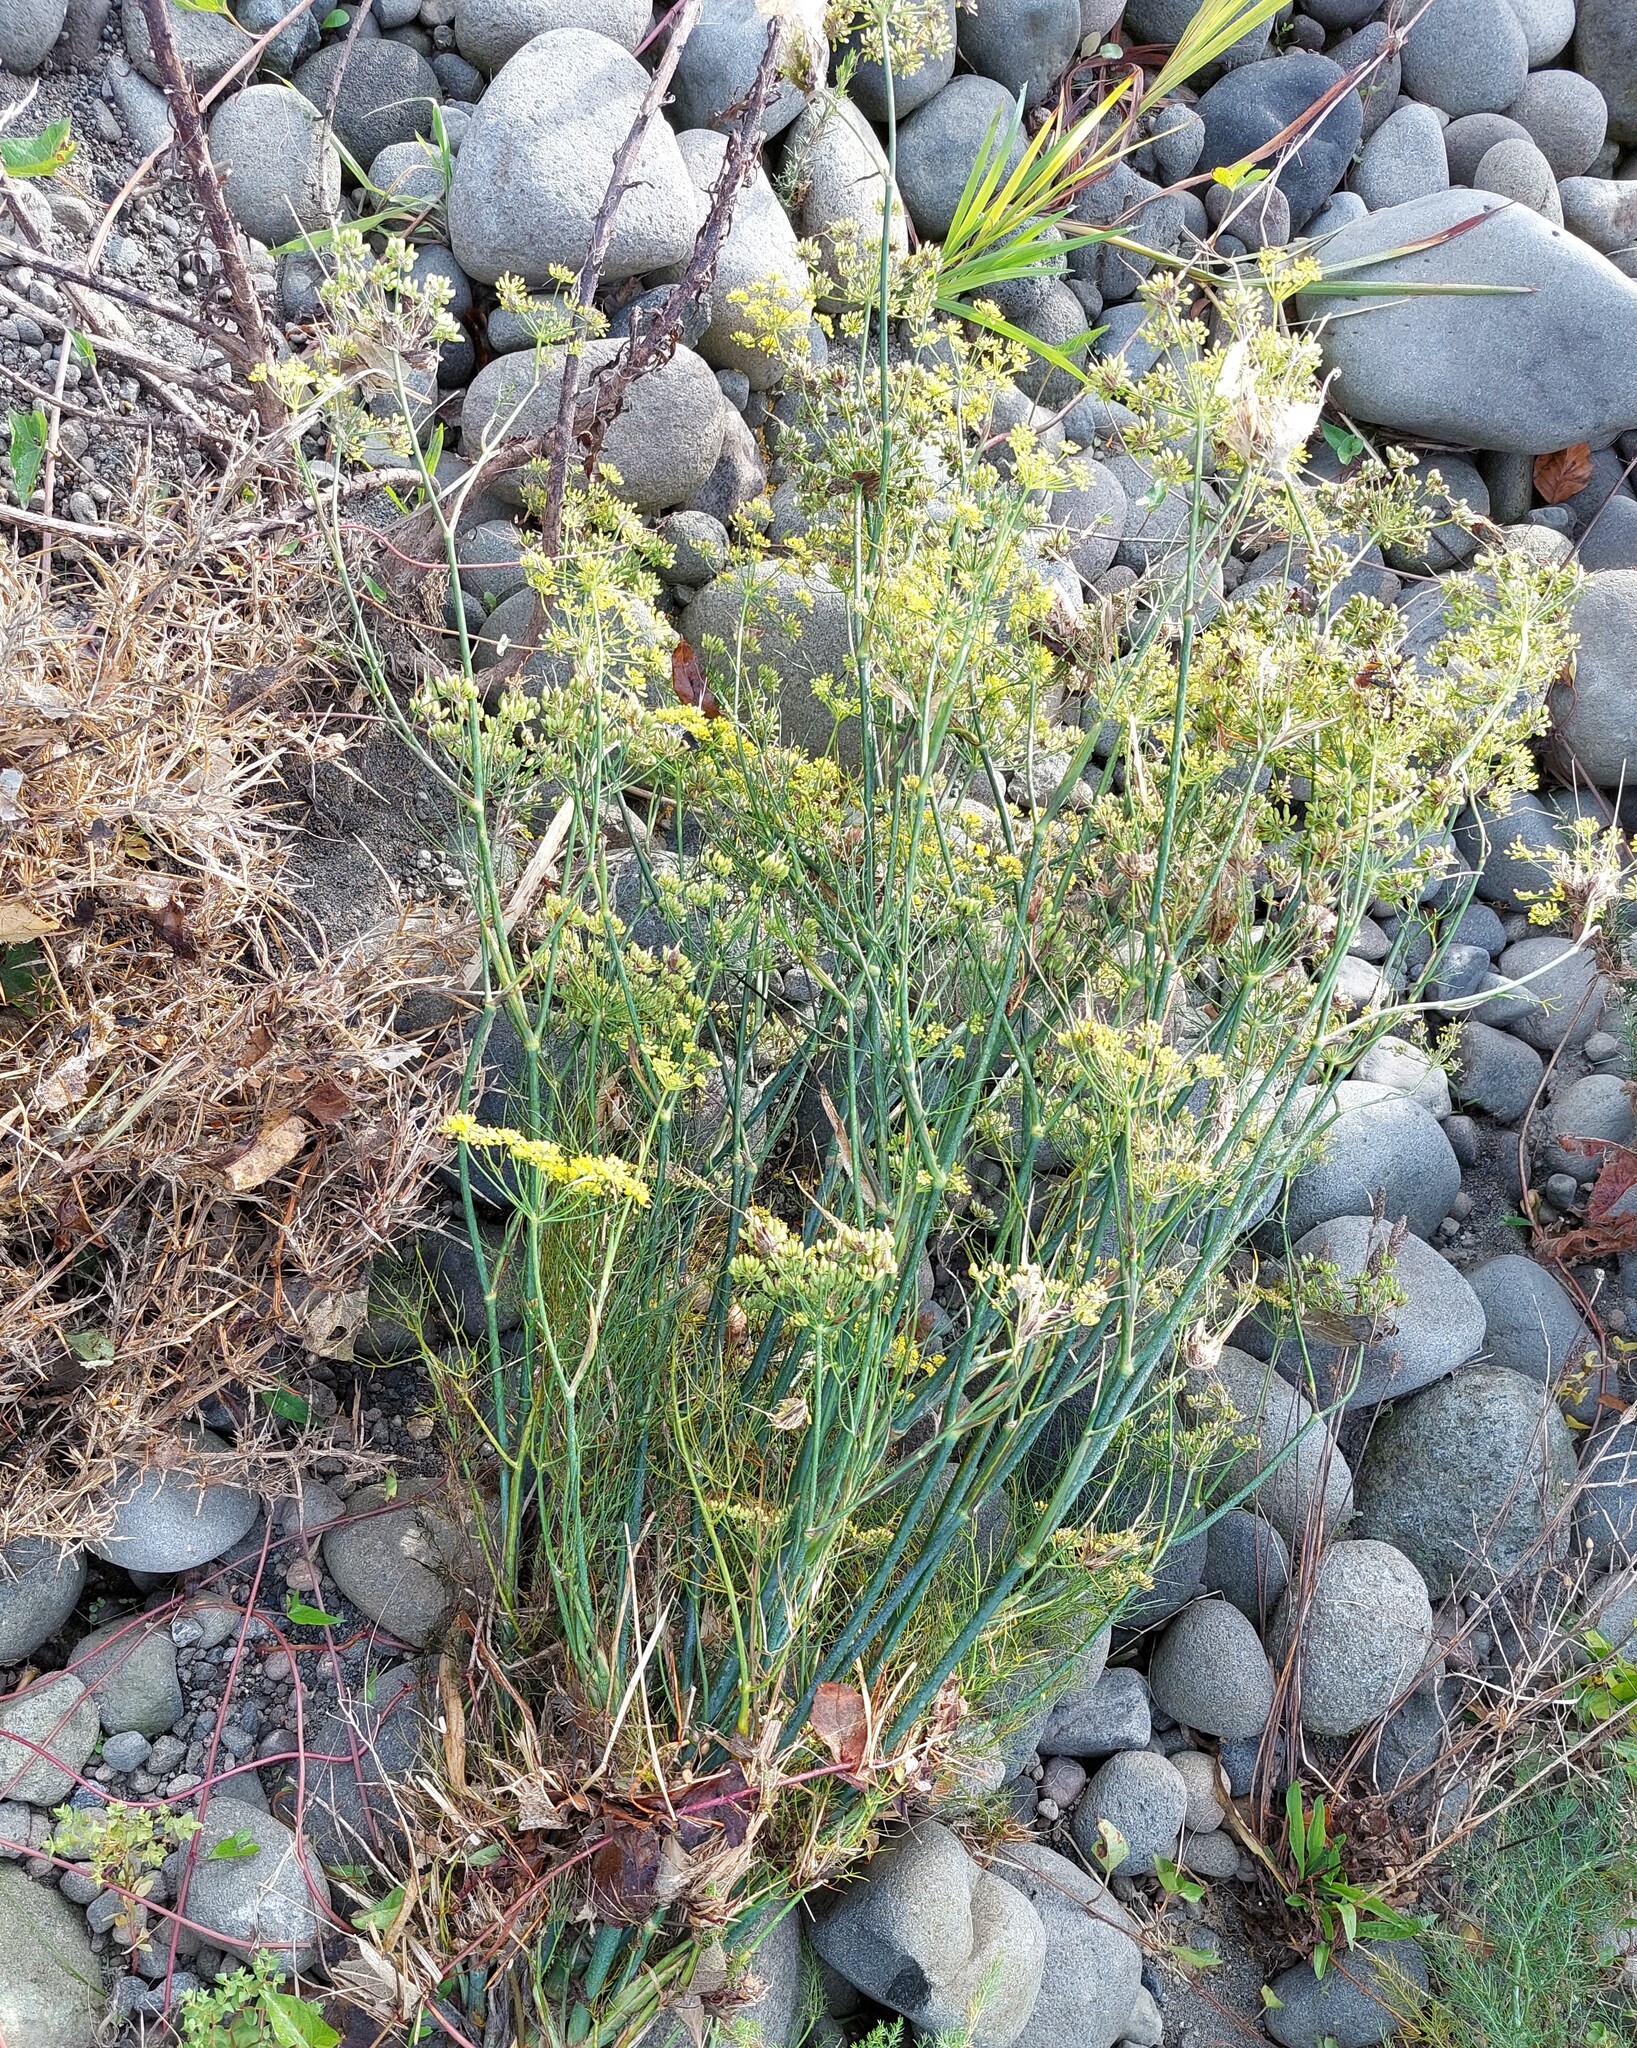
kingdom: Plantae
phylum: Tracheophyta
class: Magnoliopsida
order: Apiales
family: Apiaceae
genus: Foeniculum
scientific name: Foeniculum vulgare
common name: Fennel
